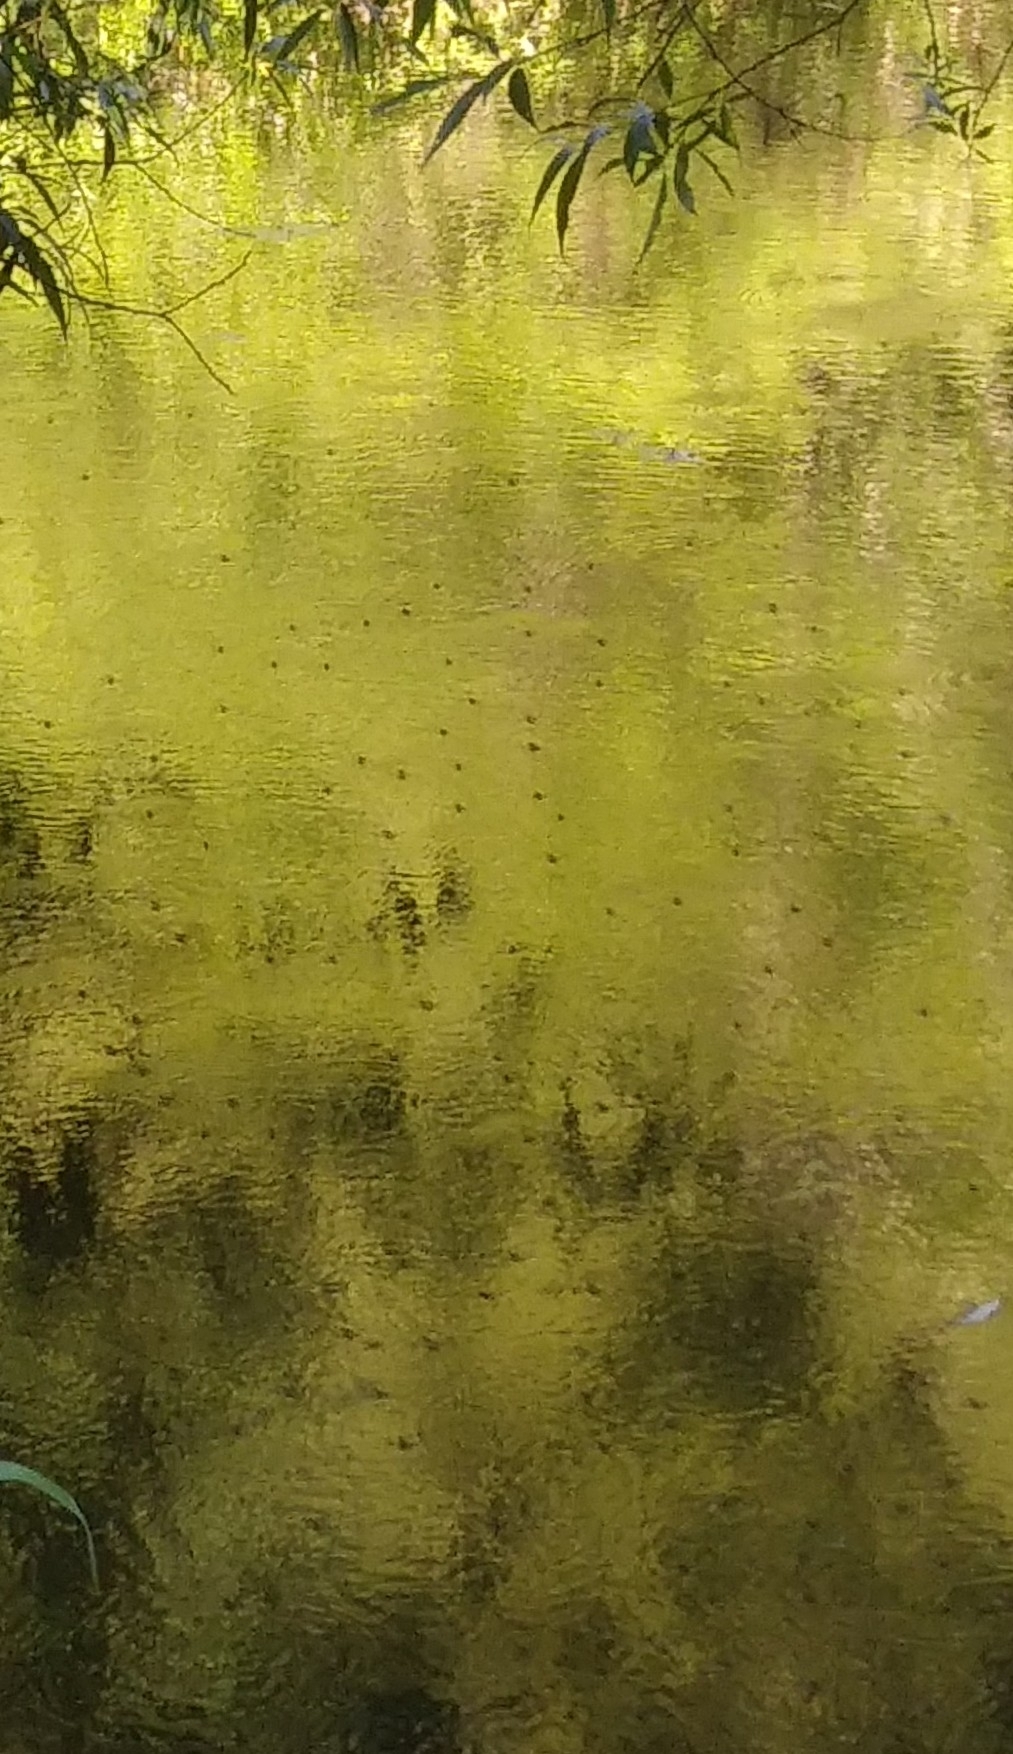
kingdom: Animalia
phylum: Arthropoda
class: Insecta
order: Hemiptera
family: Gerridae
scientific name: Gerridae
